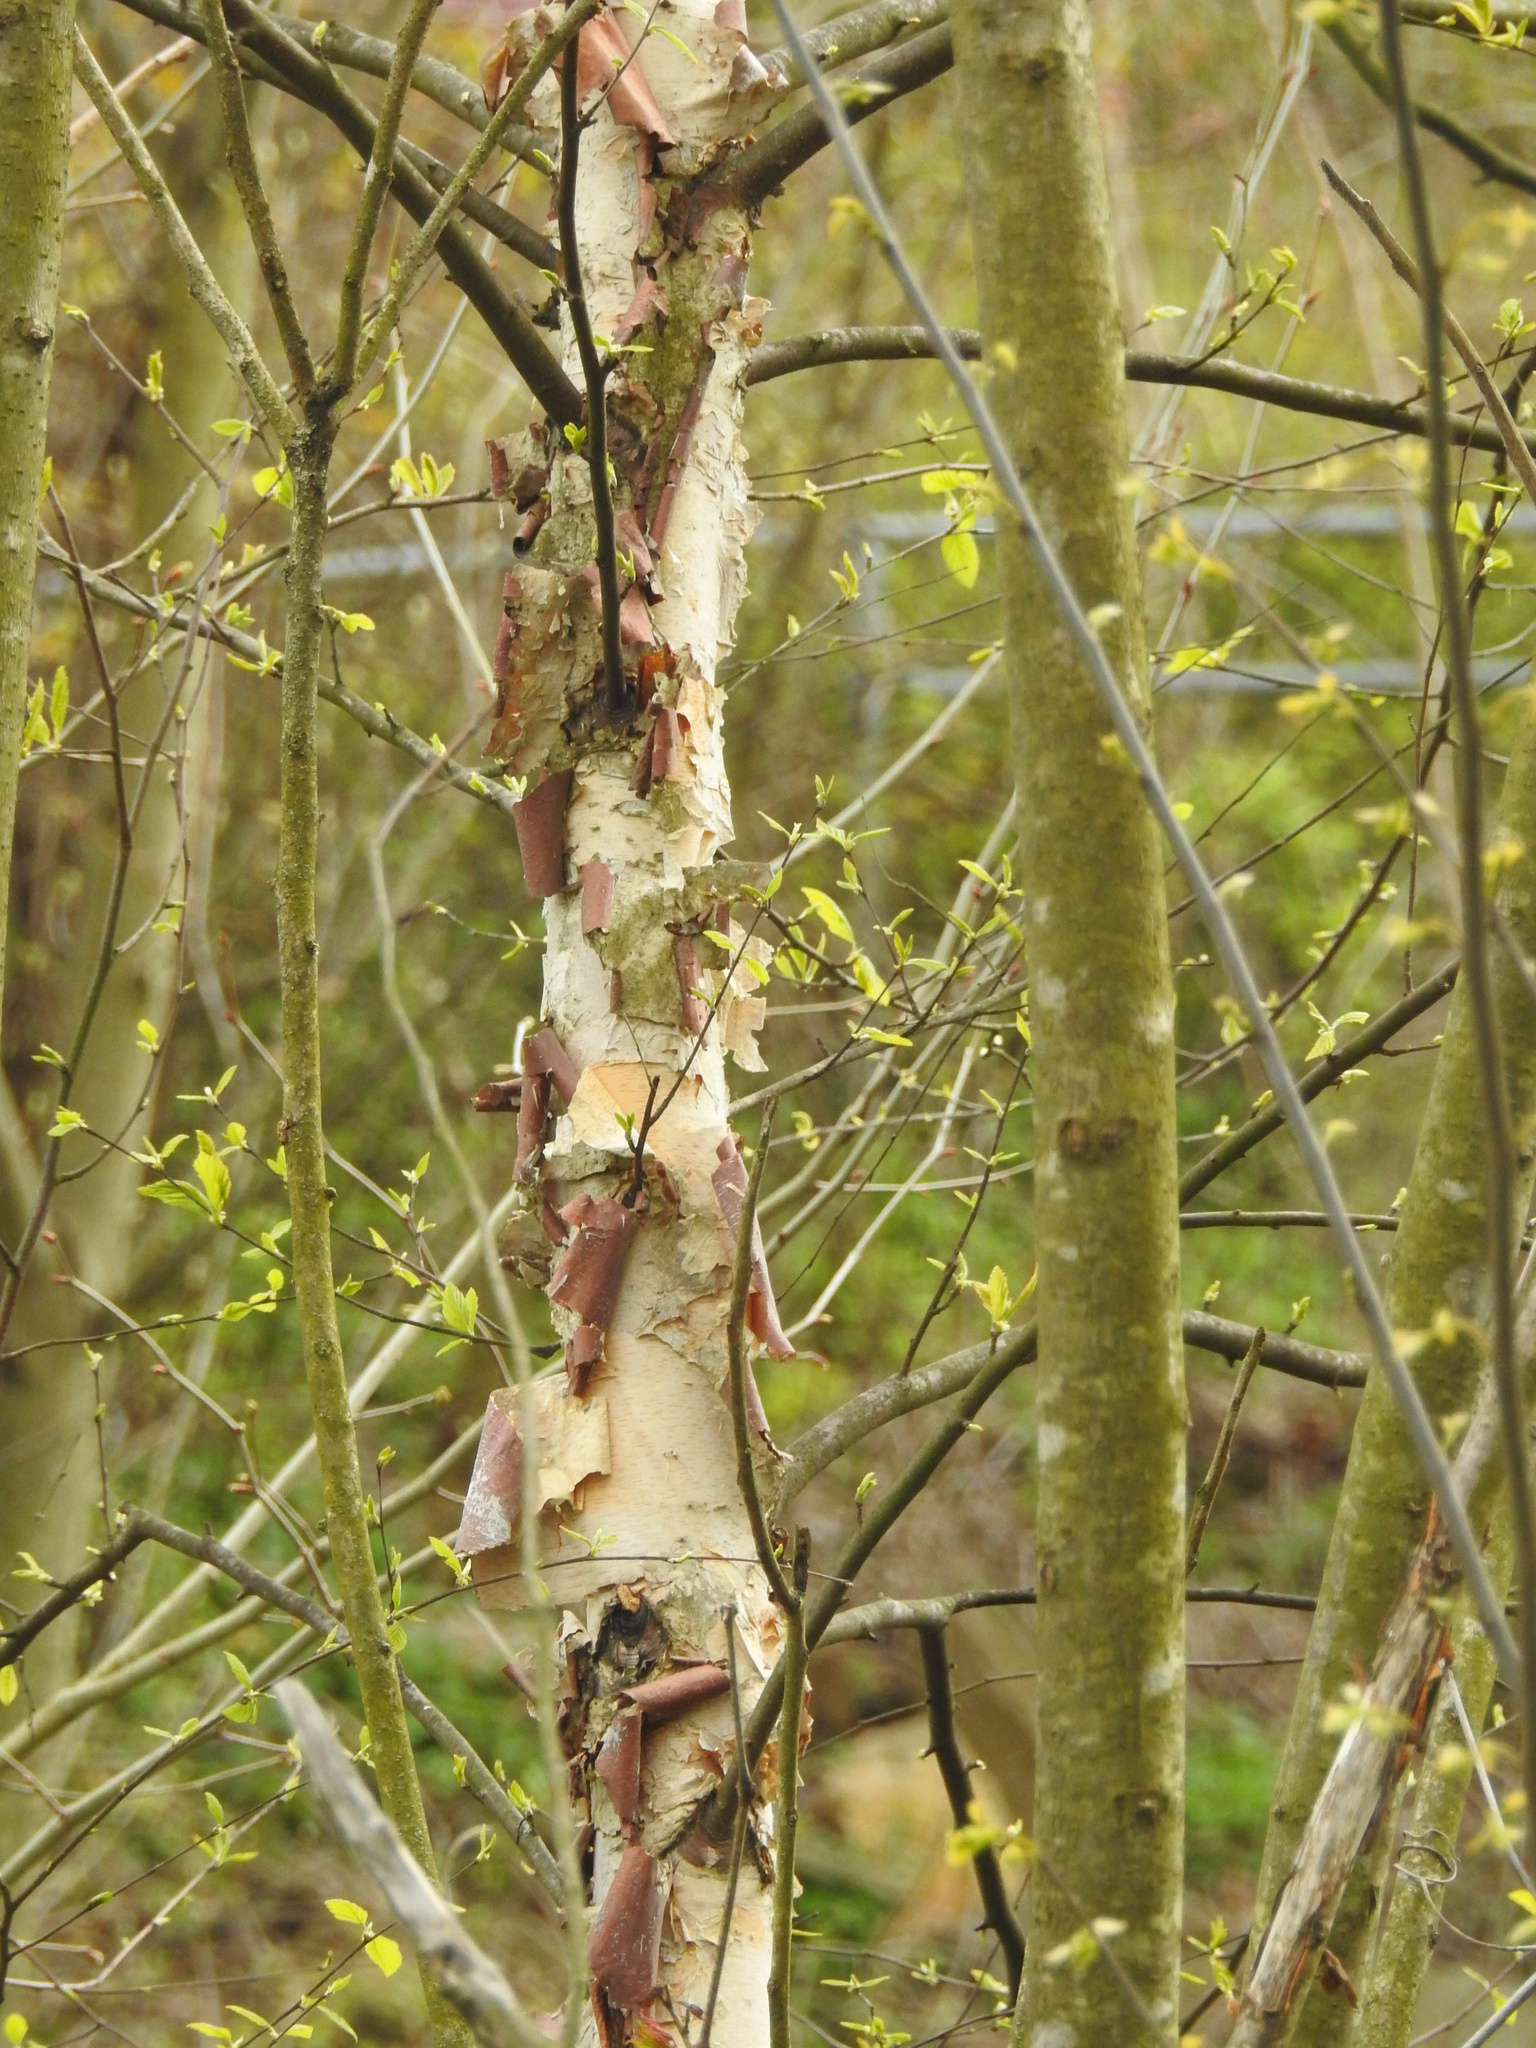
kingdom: Plantae
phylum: Tracheophyta
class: Magnoliopsida
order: Fagales
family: Betulaceae
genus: Betula
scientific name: Betula nigra
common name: Black birch
